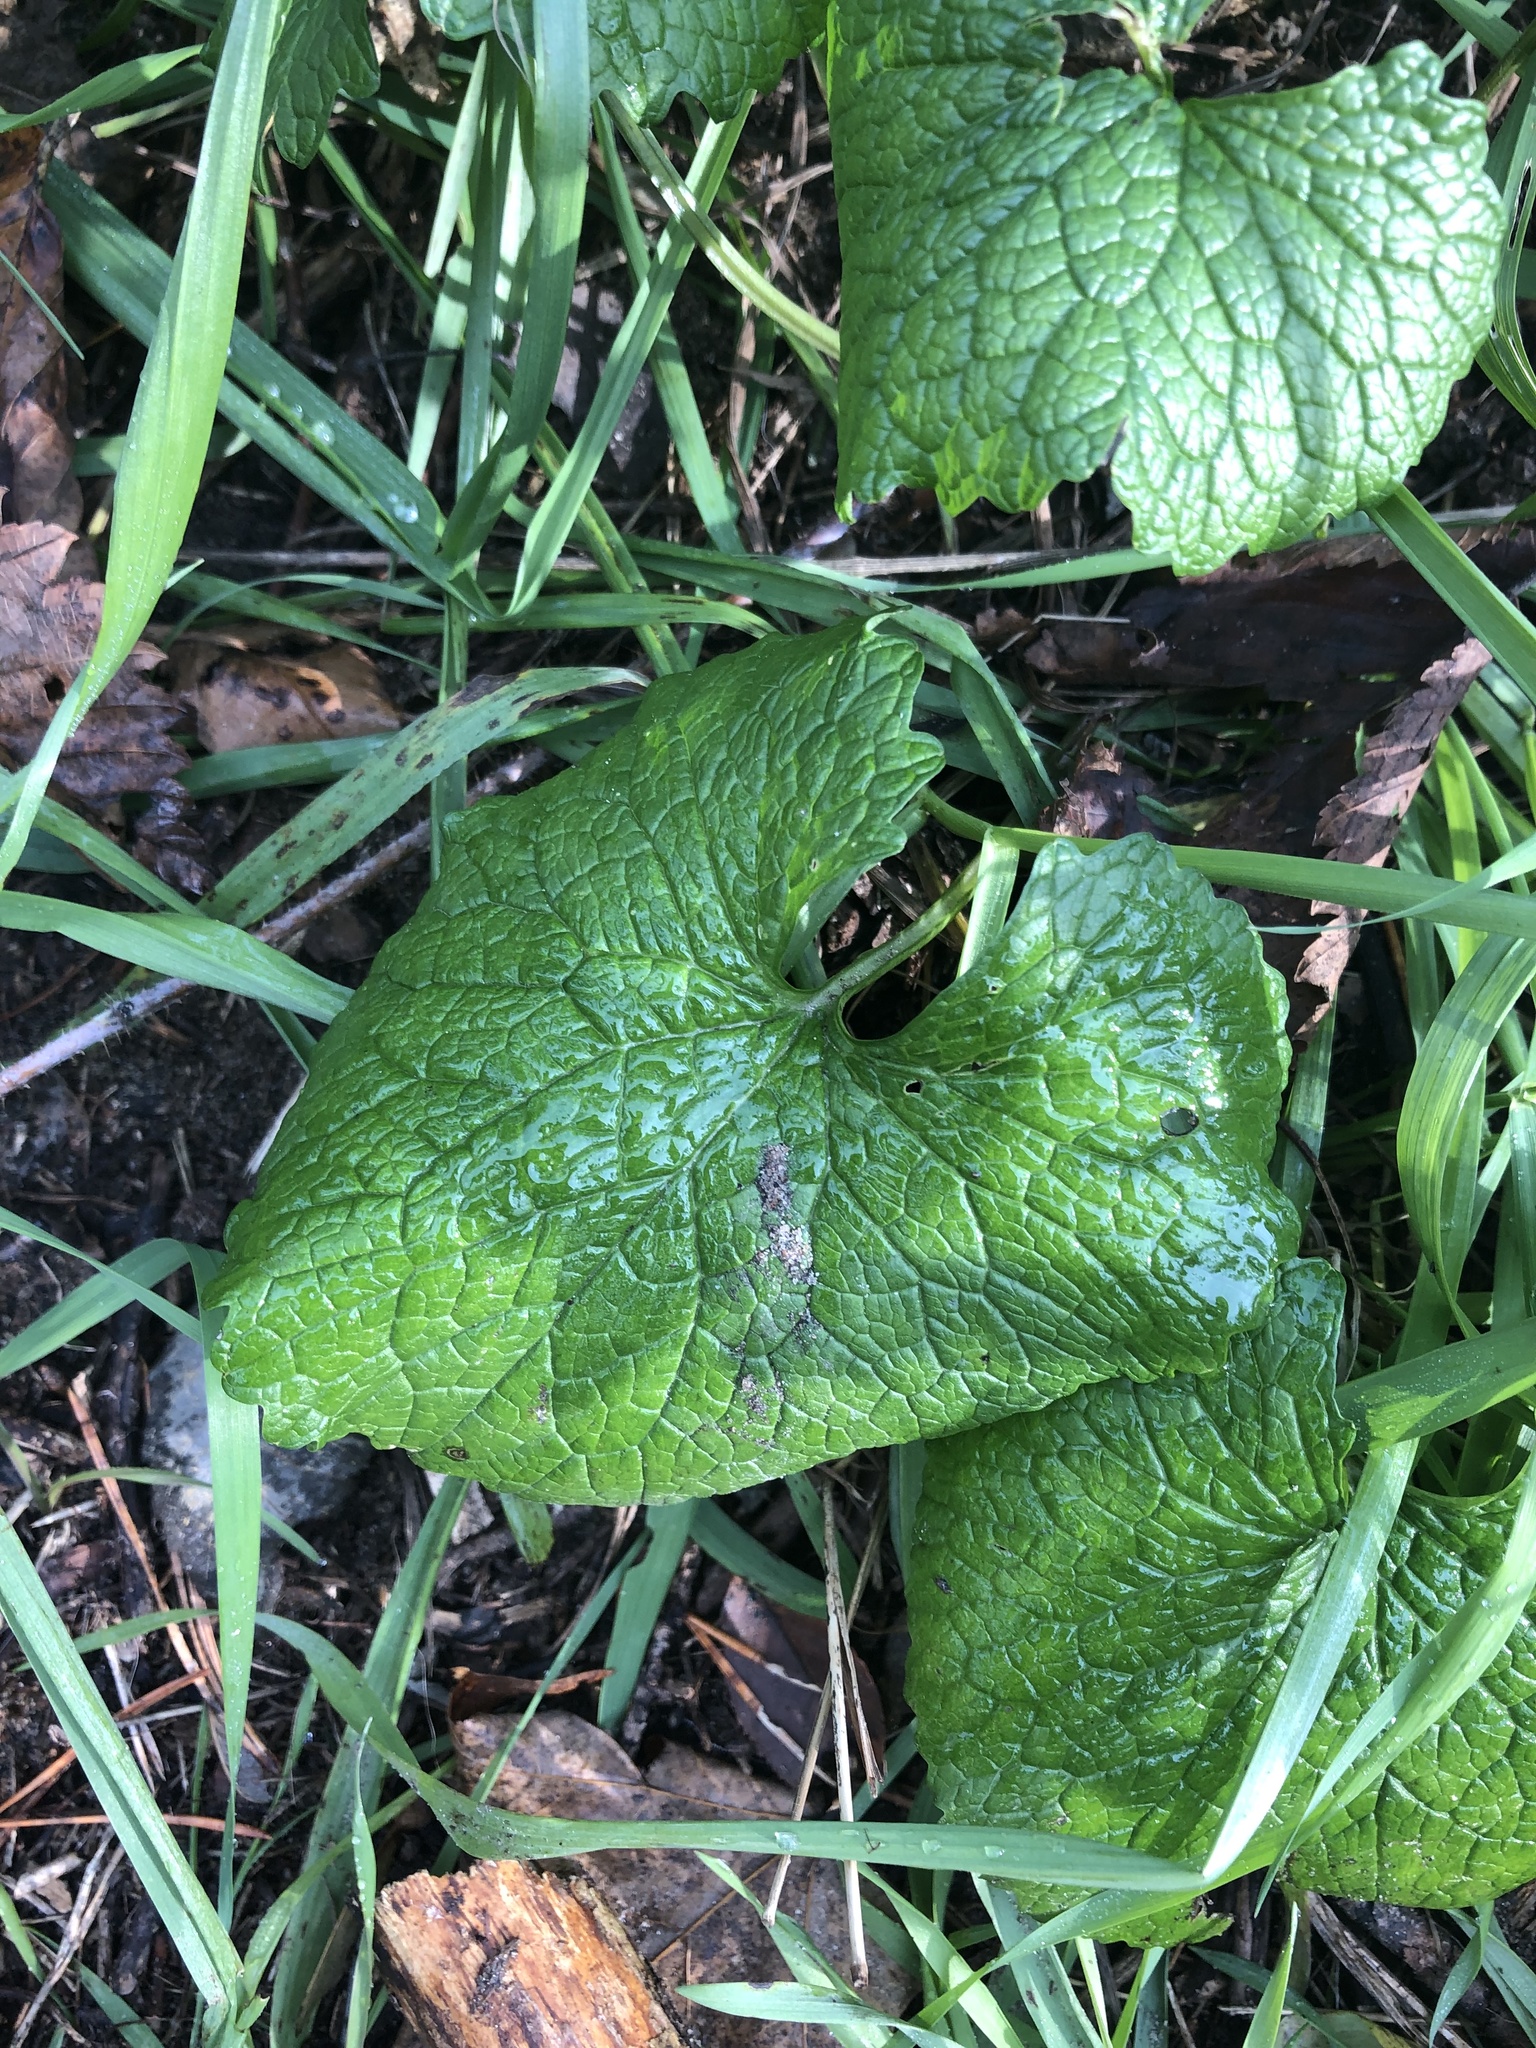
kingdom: Plantae
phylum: Tracheophyta
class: Magnoliopsida
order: Brassicales
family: Brassicaceae
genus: Alliaria
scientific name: Alliaria petiolata
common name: Garlic mustard
